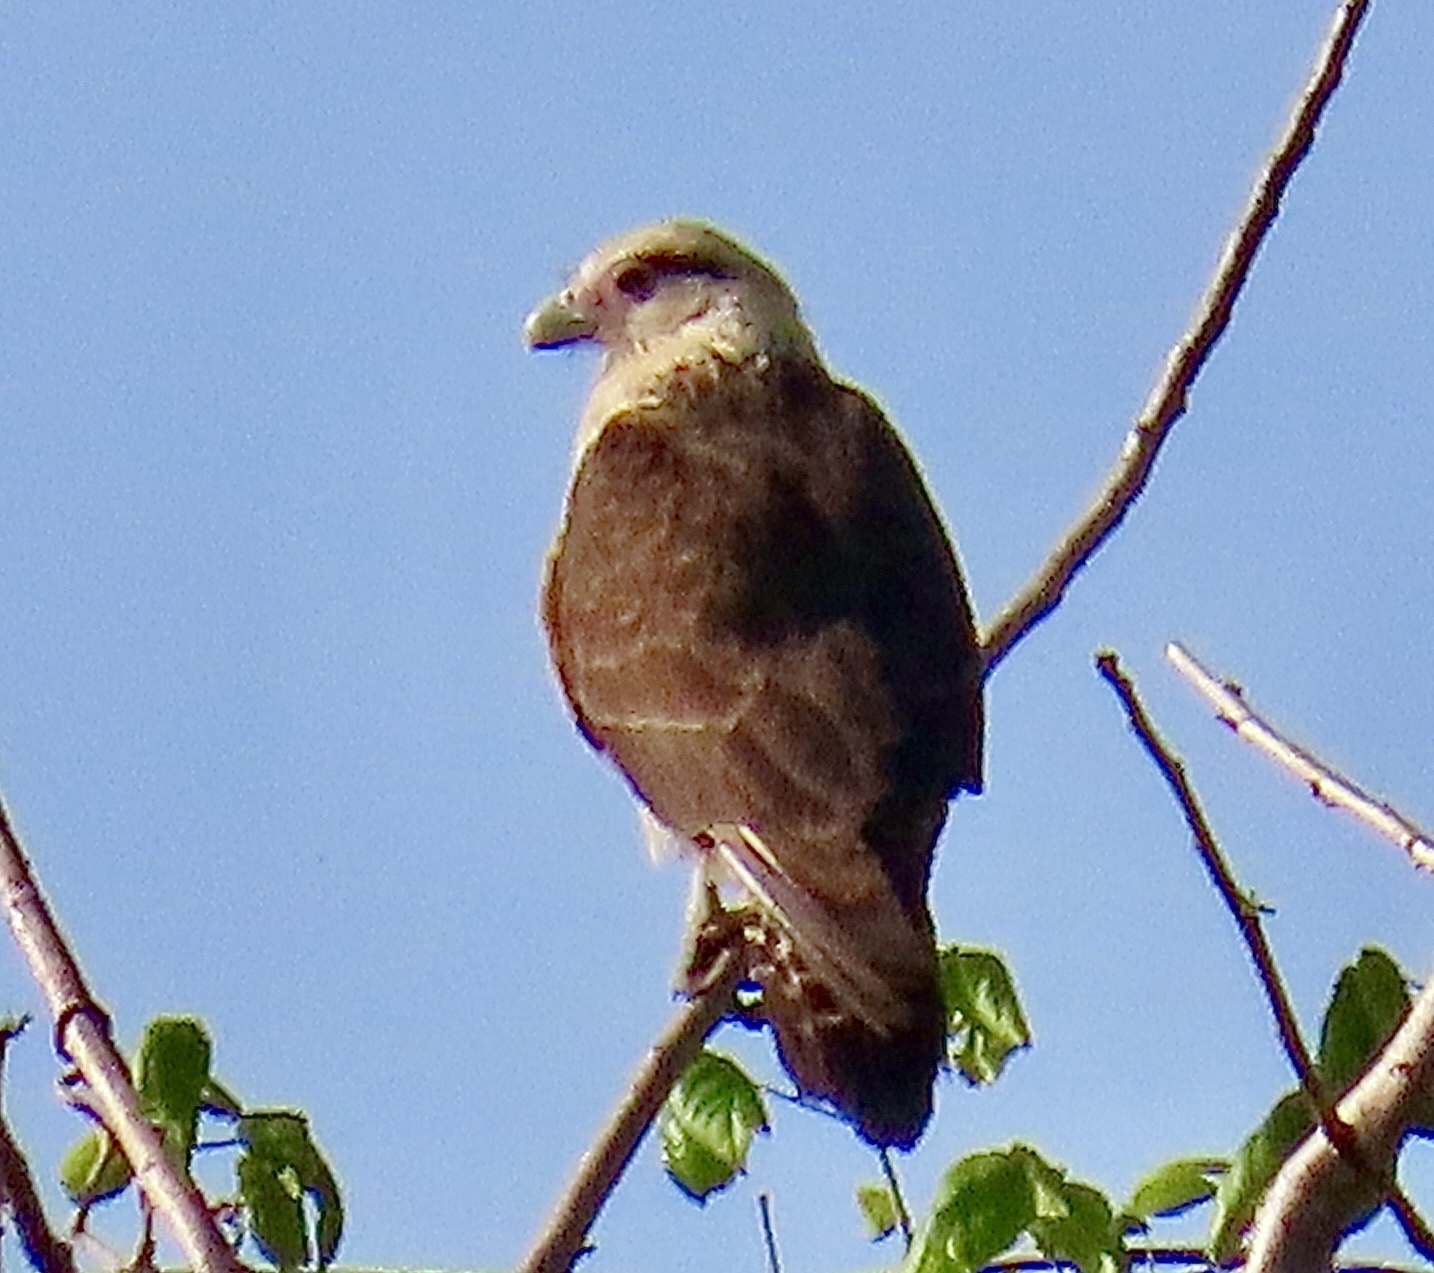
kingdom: Animalia
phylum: Chordata
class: Aves
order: Falconiformes
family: Falconidae
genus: Daptrius
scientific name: Daptrius
